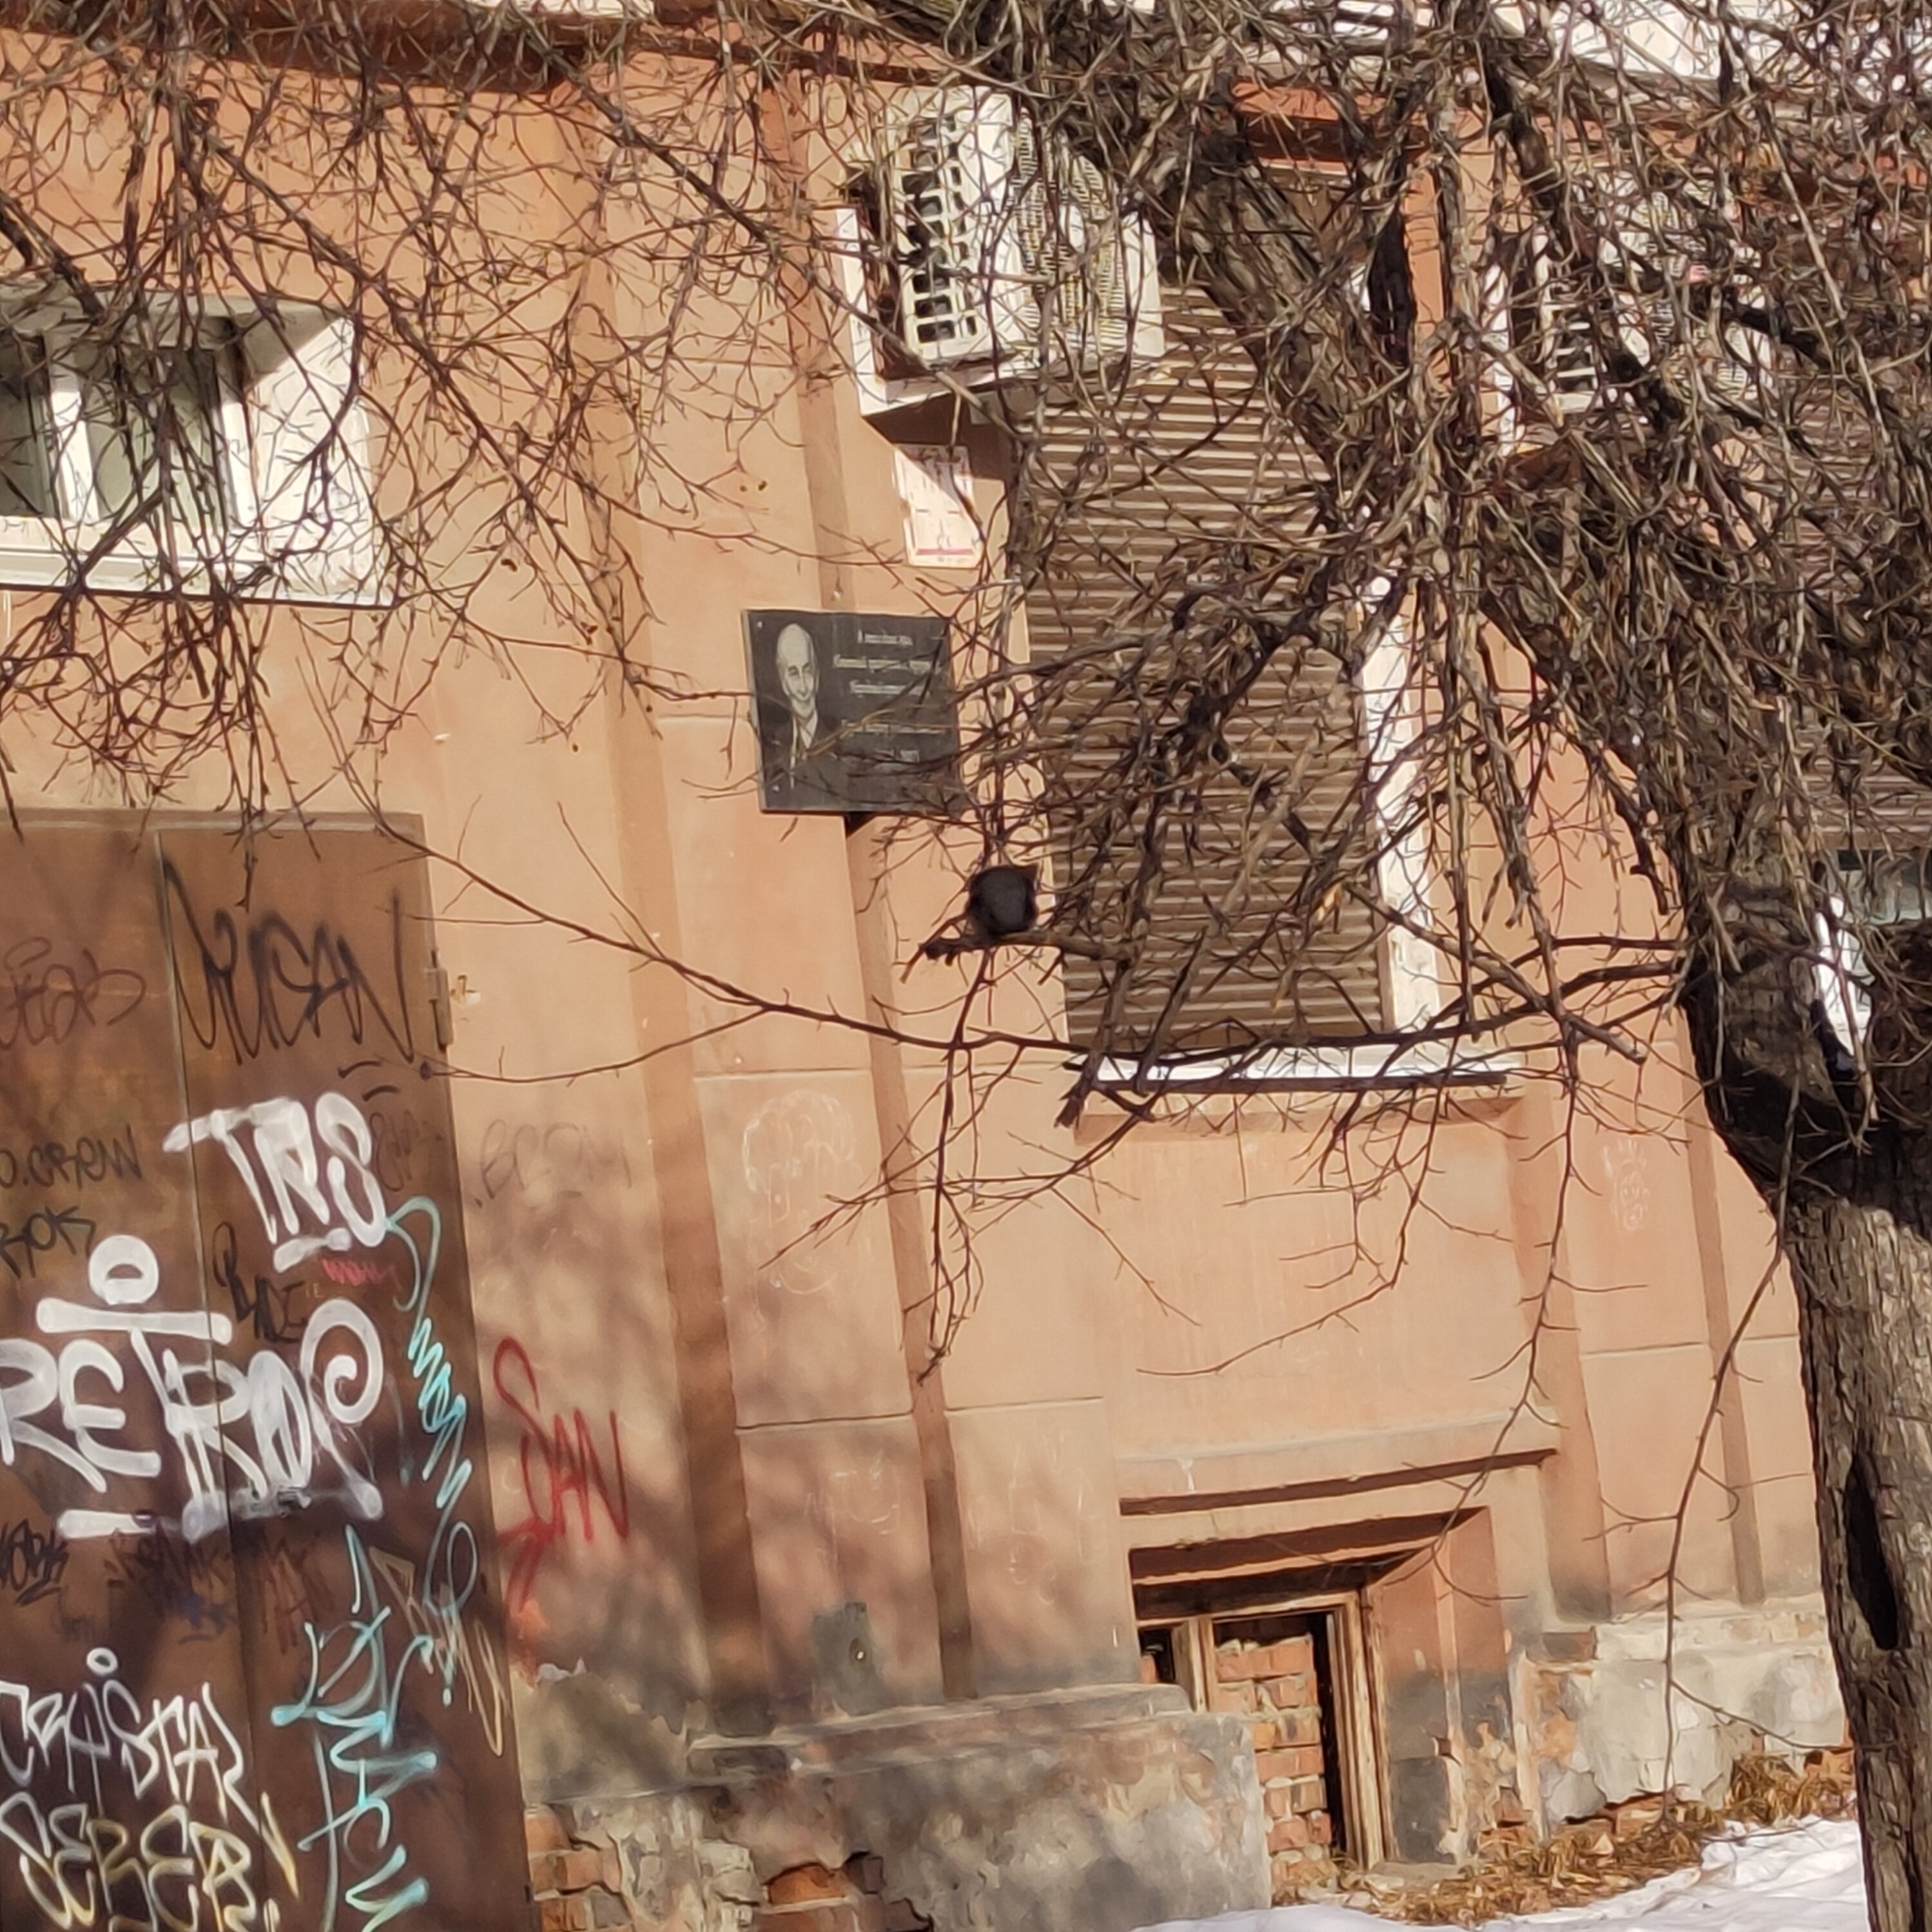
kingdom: Animalia
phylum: Chordata
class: Aves
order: Passeriformes
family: Bombycillidae
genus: Bombycilla
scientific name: Bombycilla garrulus
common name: Bohemian waxwing
